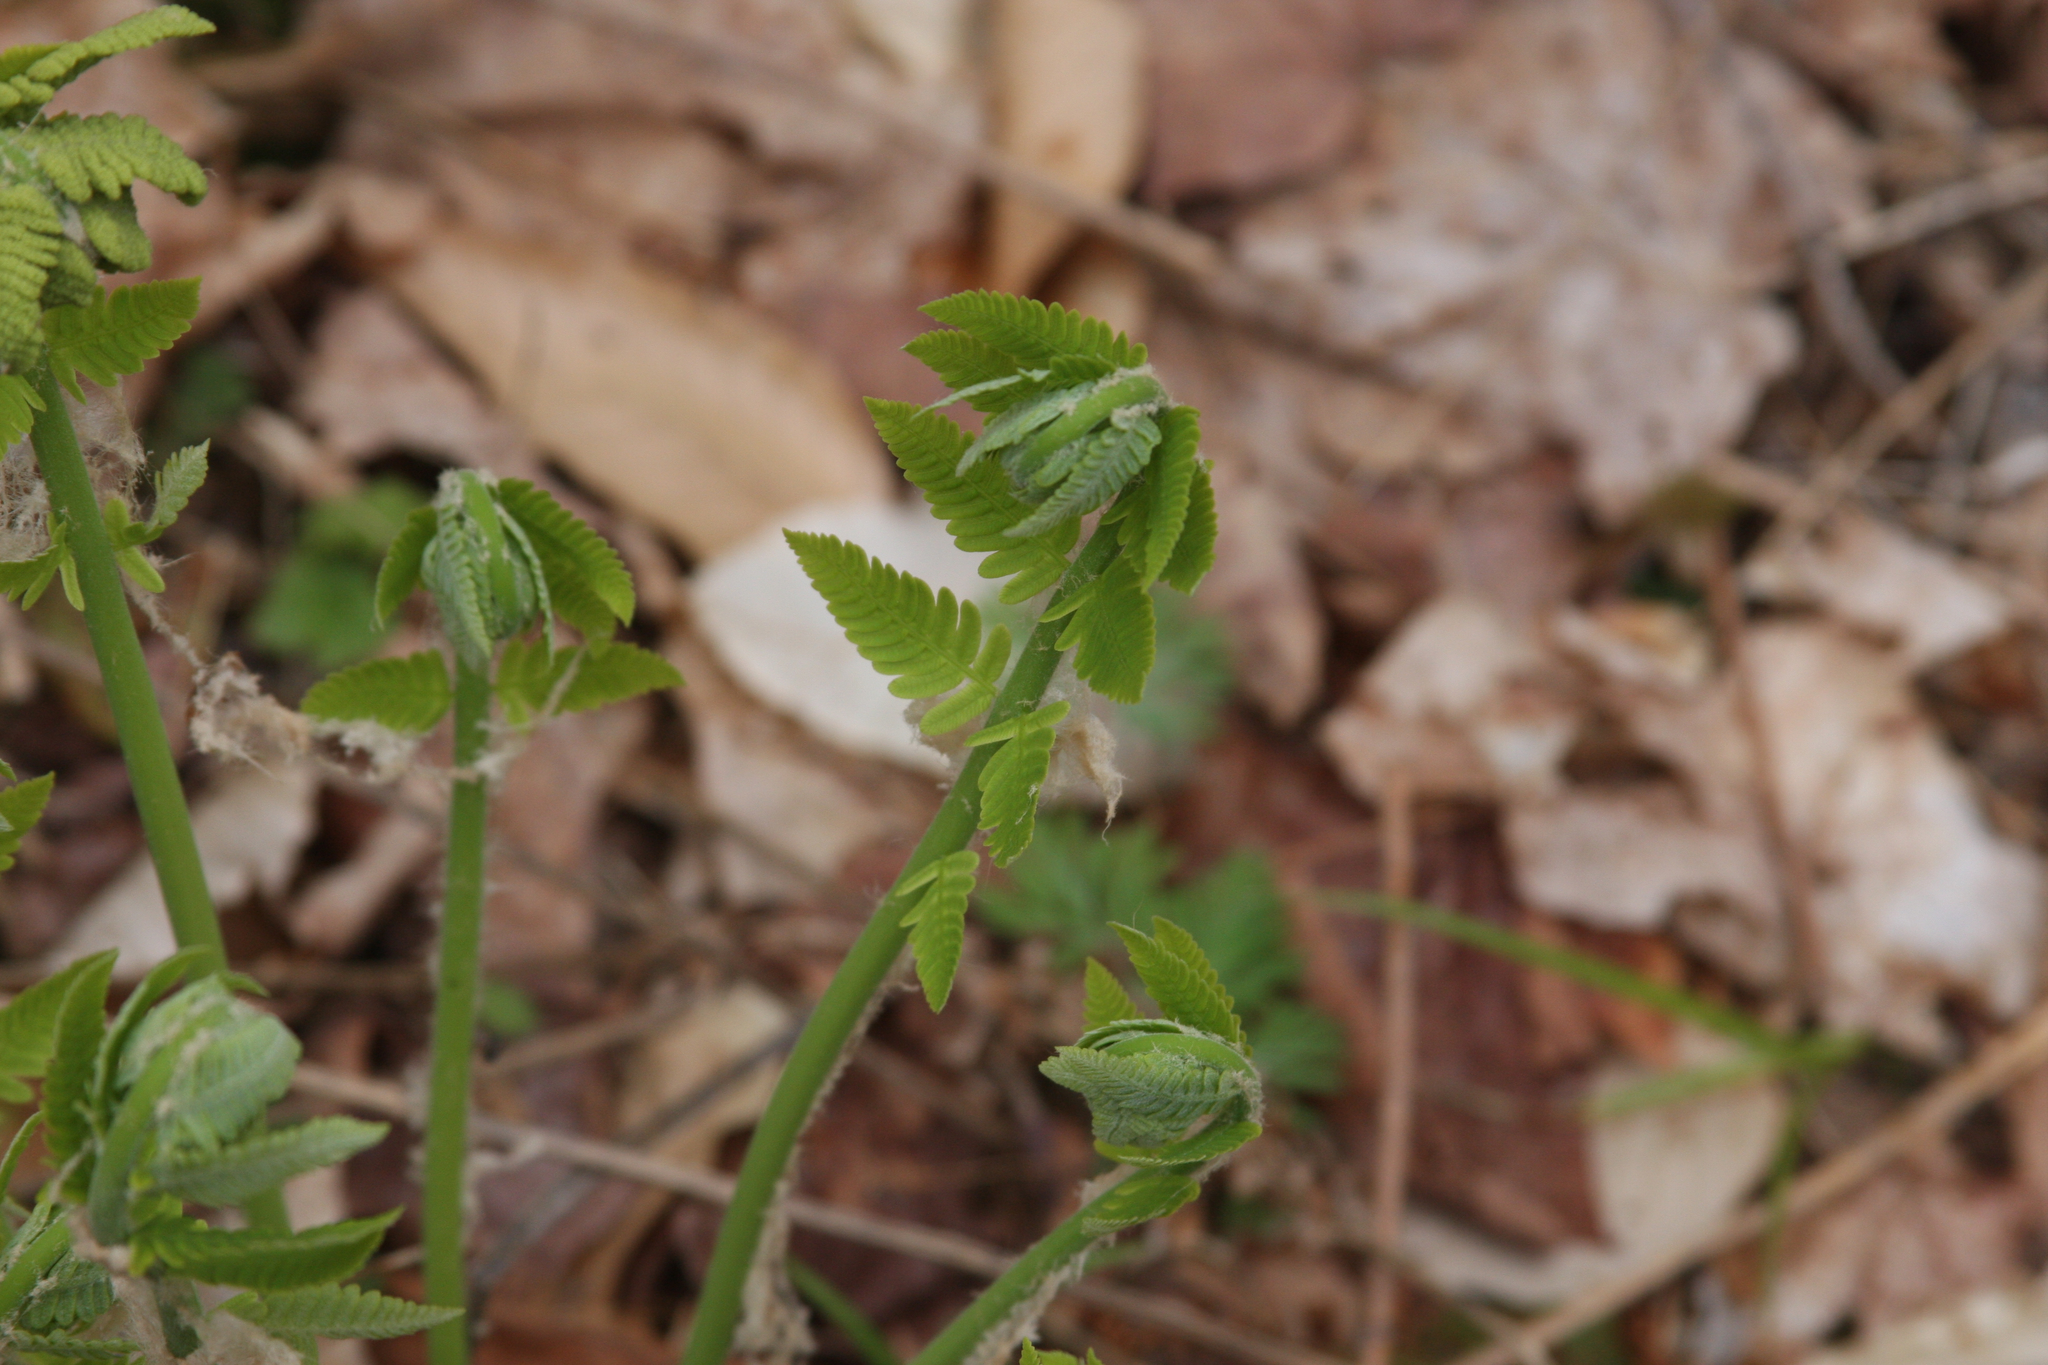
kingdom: Plantae
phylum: Tracheophyta
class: Polypodiopsida
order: Osmundales
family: Osmundaceae
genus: Claytosmunda
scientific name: Claytosmunda claytoniana
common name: Clayton's fern
